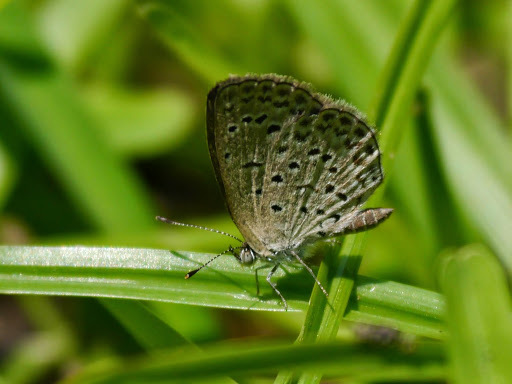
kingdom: Animalia
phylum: Arthropoda
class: Insecta
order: Lepidoptera
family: Lycaenidae
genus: Zizeeria
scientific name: Zizeeria knysna
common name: African grass blue
